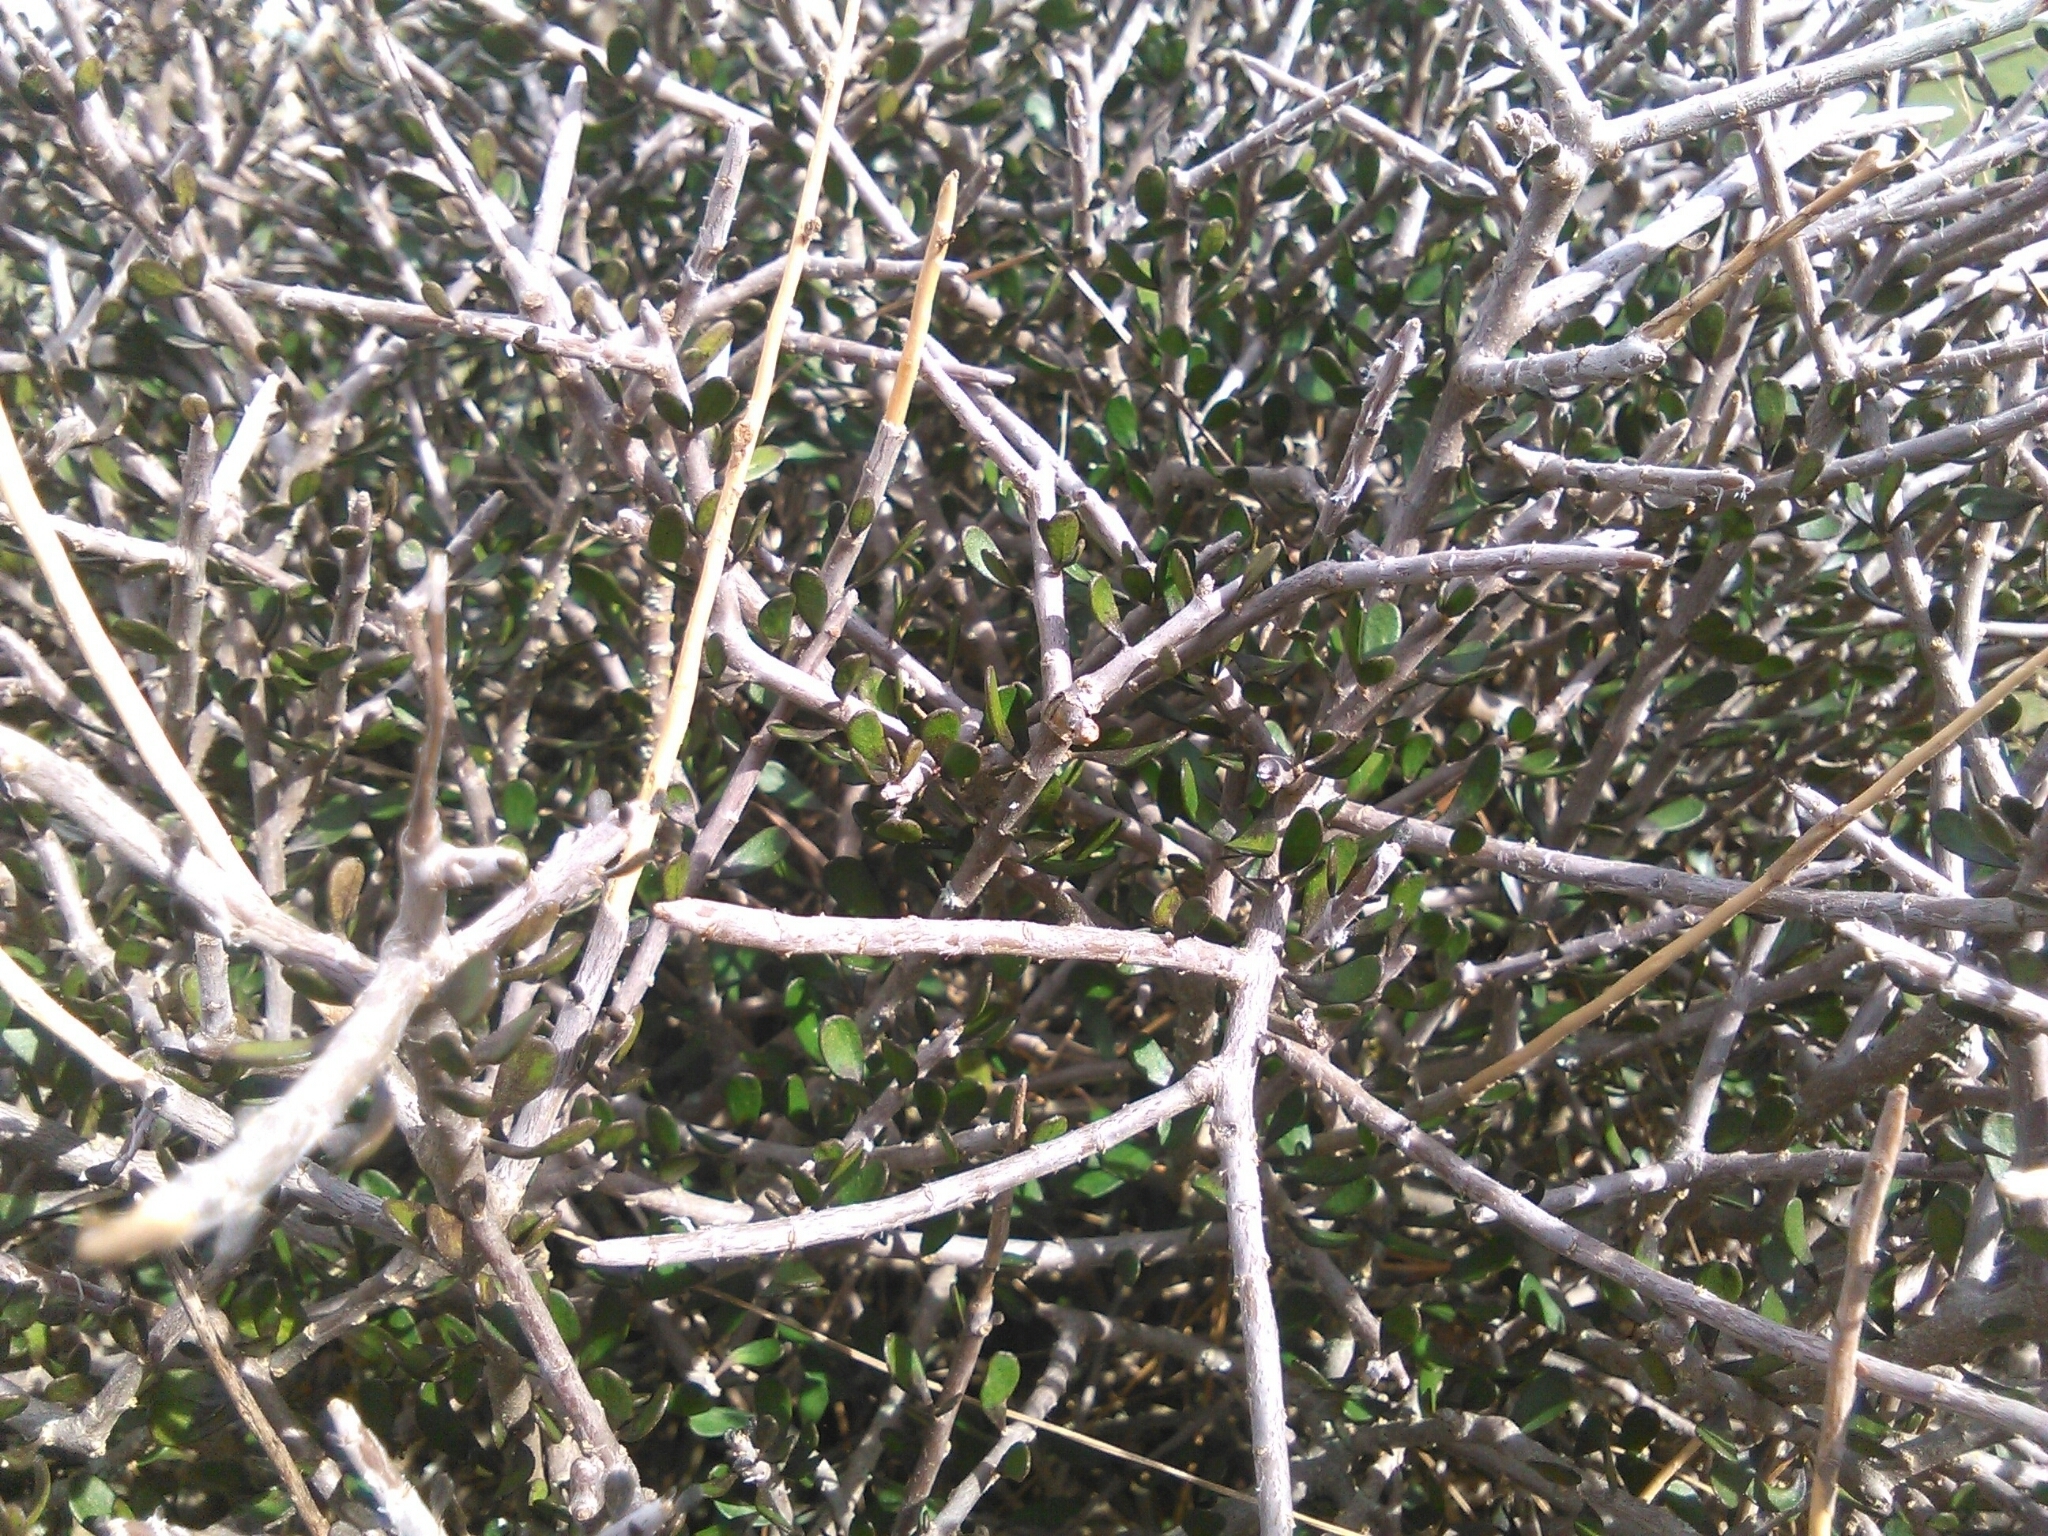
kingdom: Plantae
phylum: Tracheophyta
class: Magnoliopsida
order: Malpighiales
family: Violaceae
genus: Melicytus
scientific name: Melicytus alpinus
